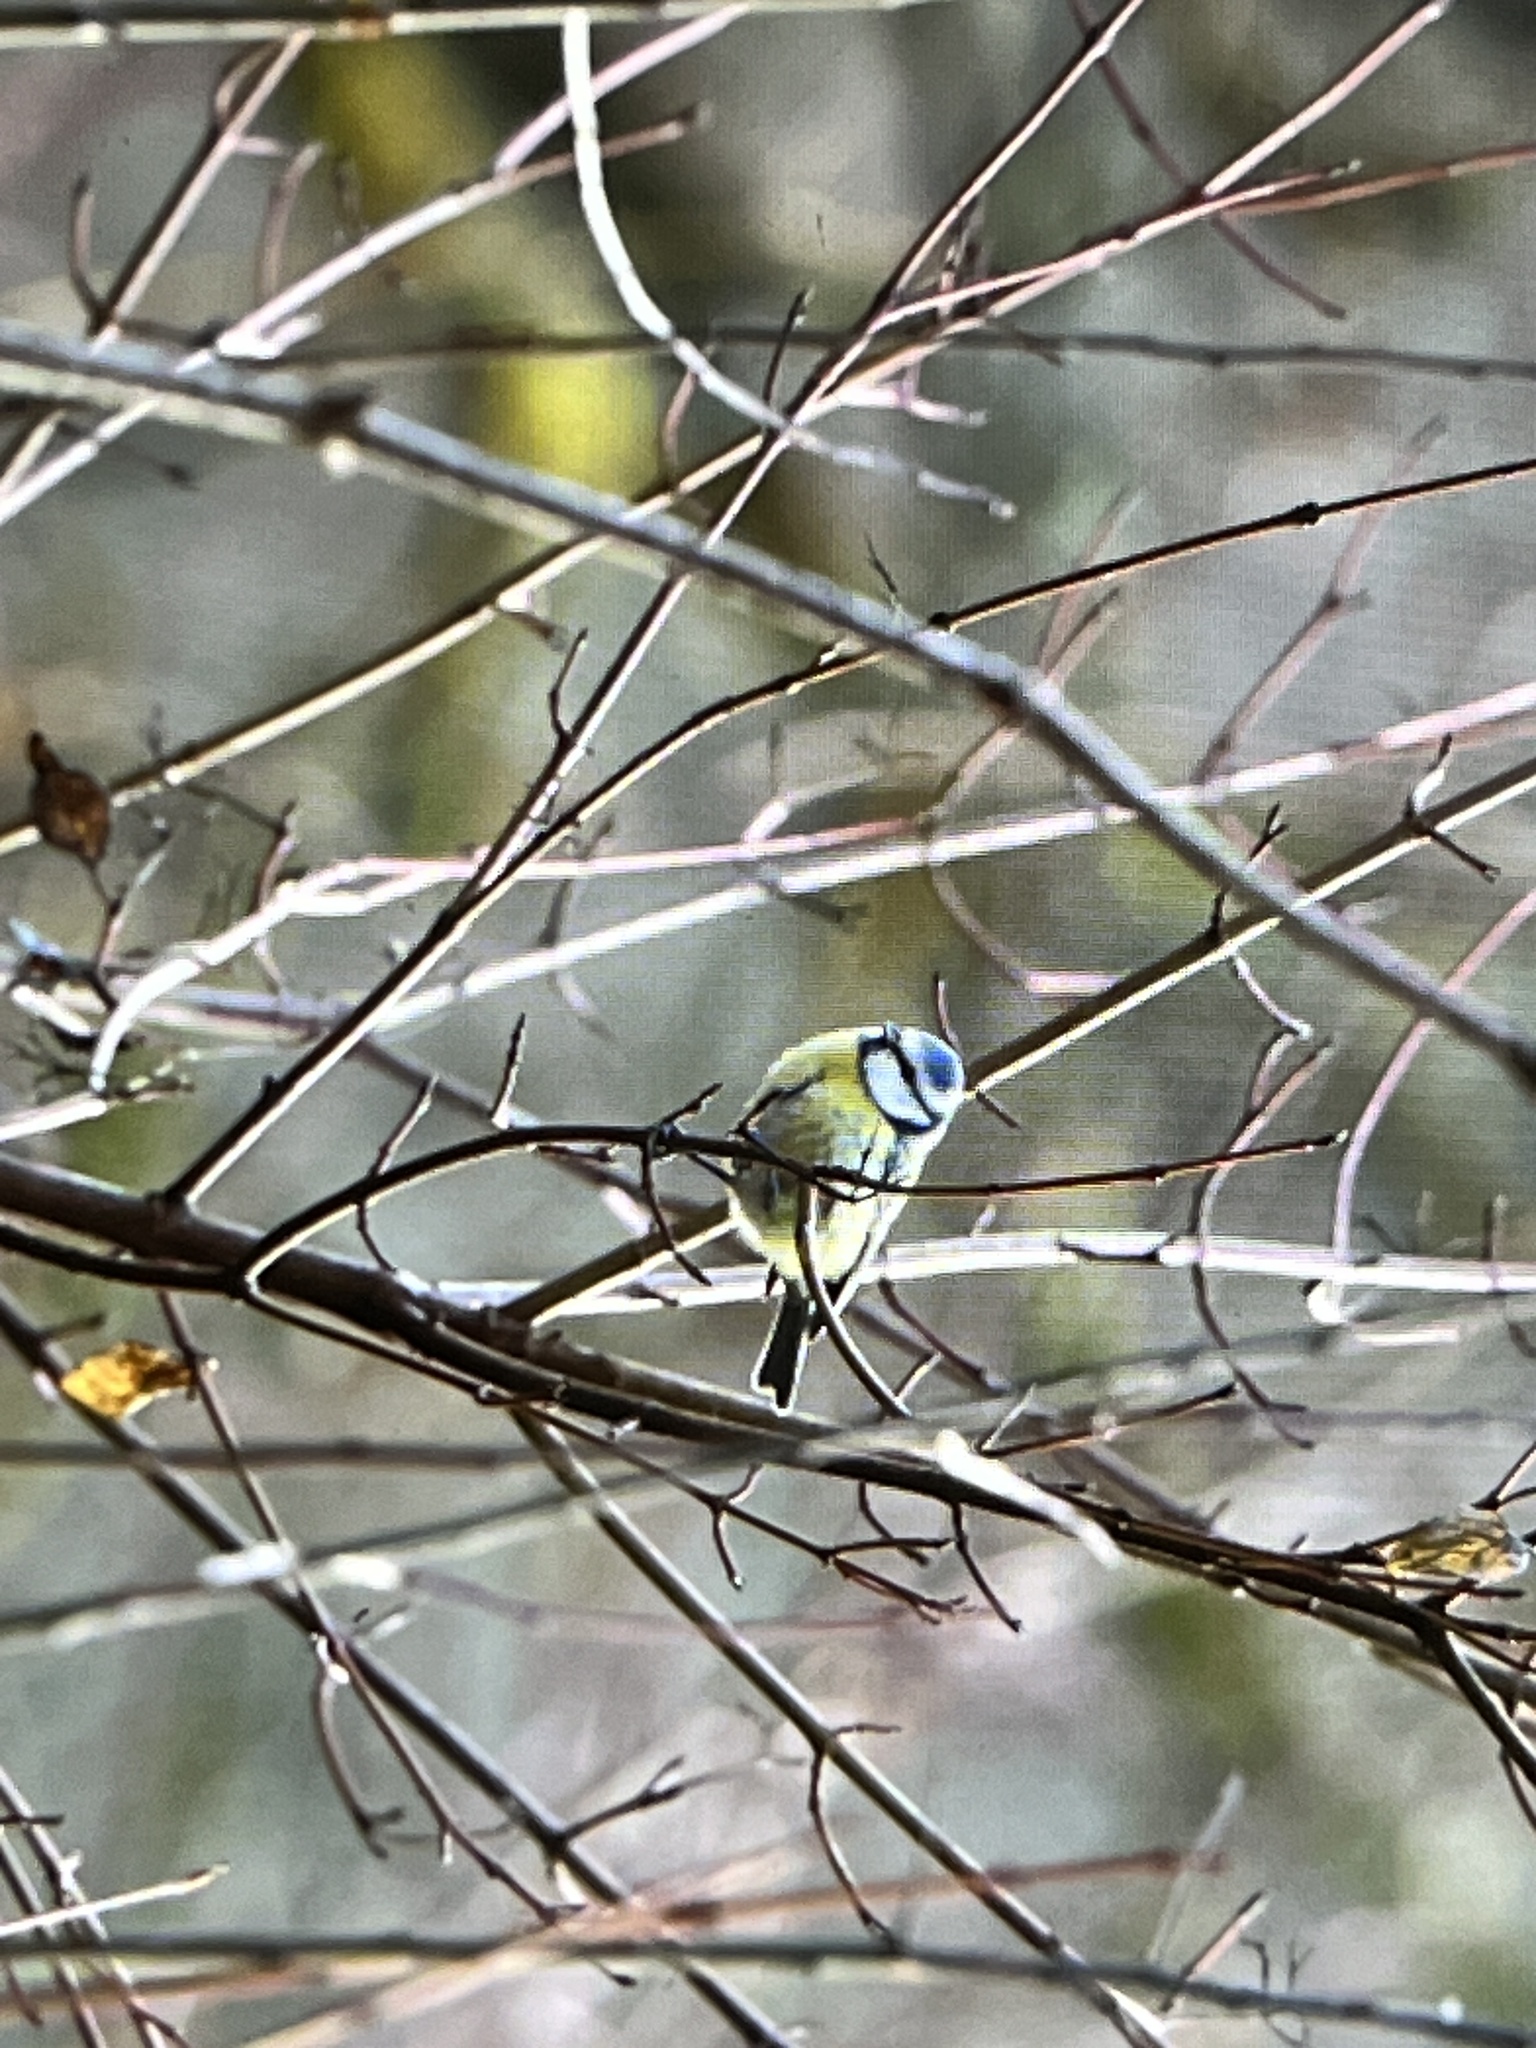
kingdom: Animalia
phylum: Chordata
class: Aves
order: Passeriformes
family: Paridae
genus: Cyanistes
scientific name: Cyanistes caeruleus
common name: Eurasian blue tit
